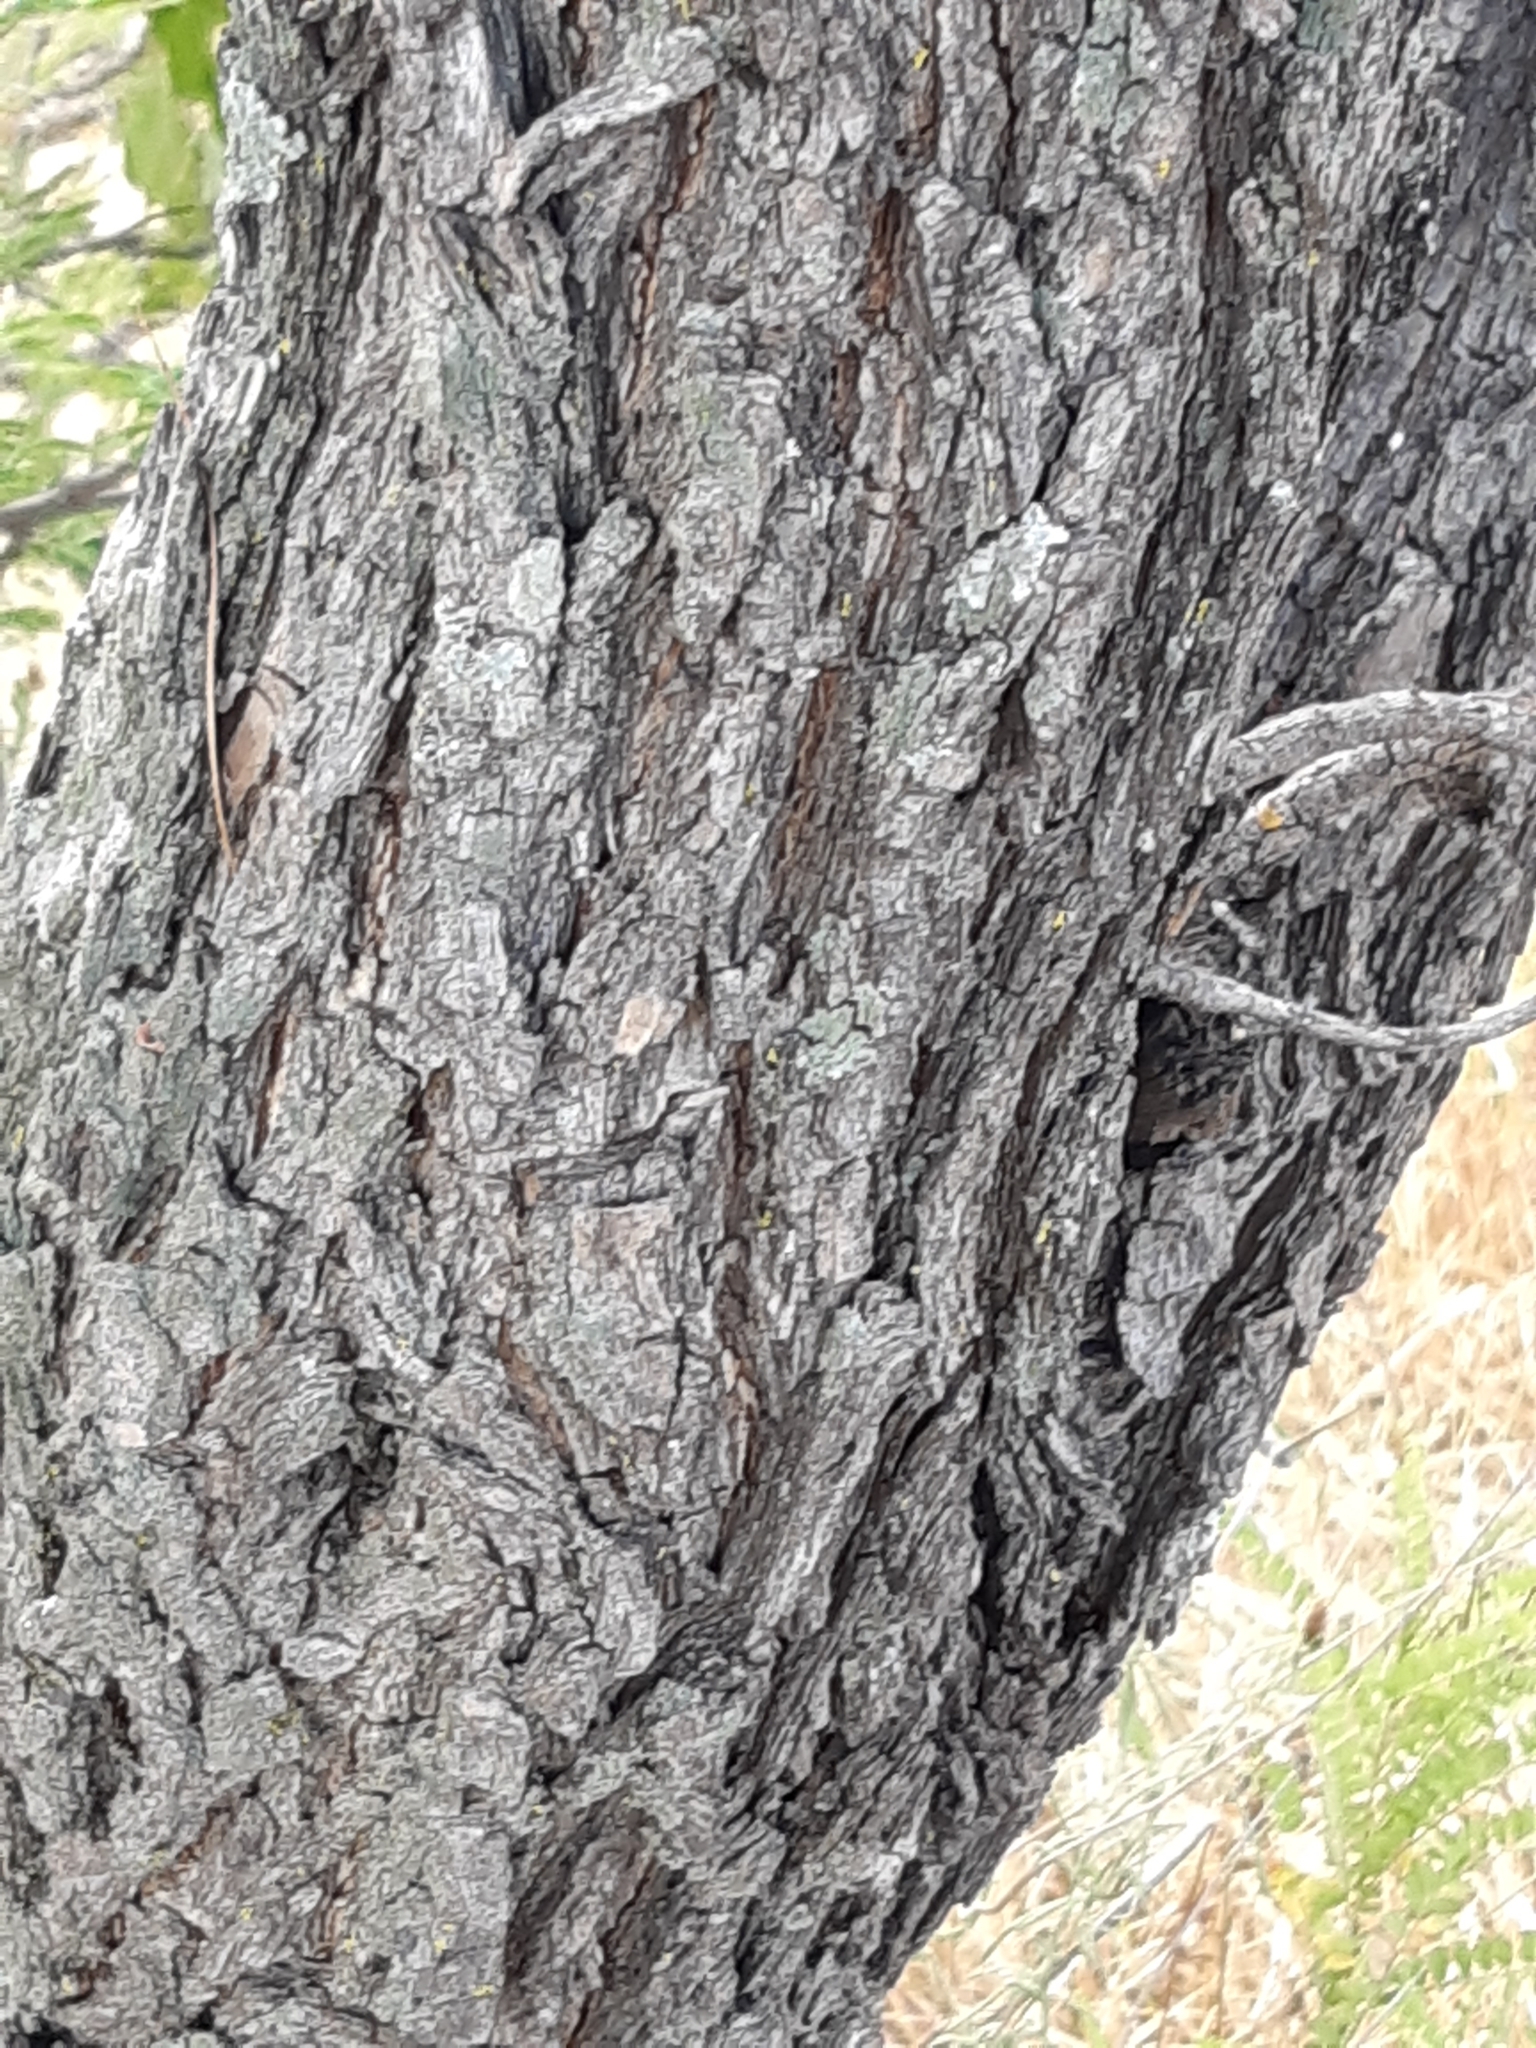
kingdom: Plantae
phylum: Tracheophyta
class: Magnoliopsida
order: Fabales
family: Fabaceae
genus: Eysenhardtia
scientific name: Eysenhardtia polystachya
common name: Kidneywood
